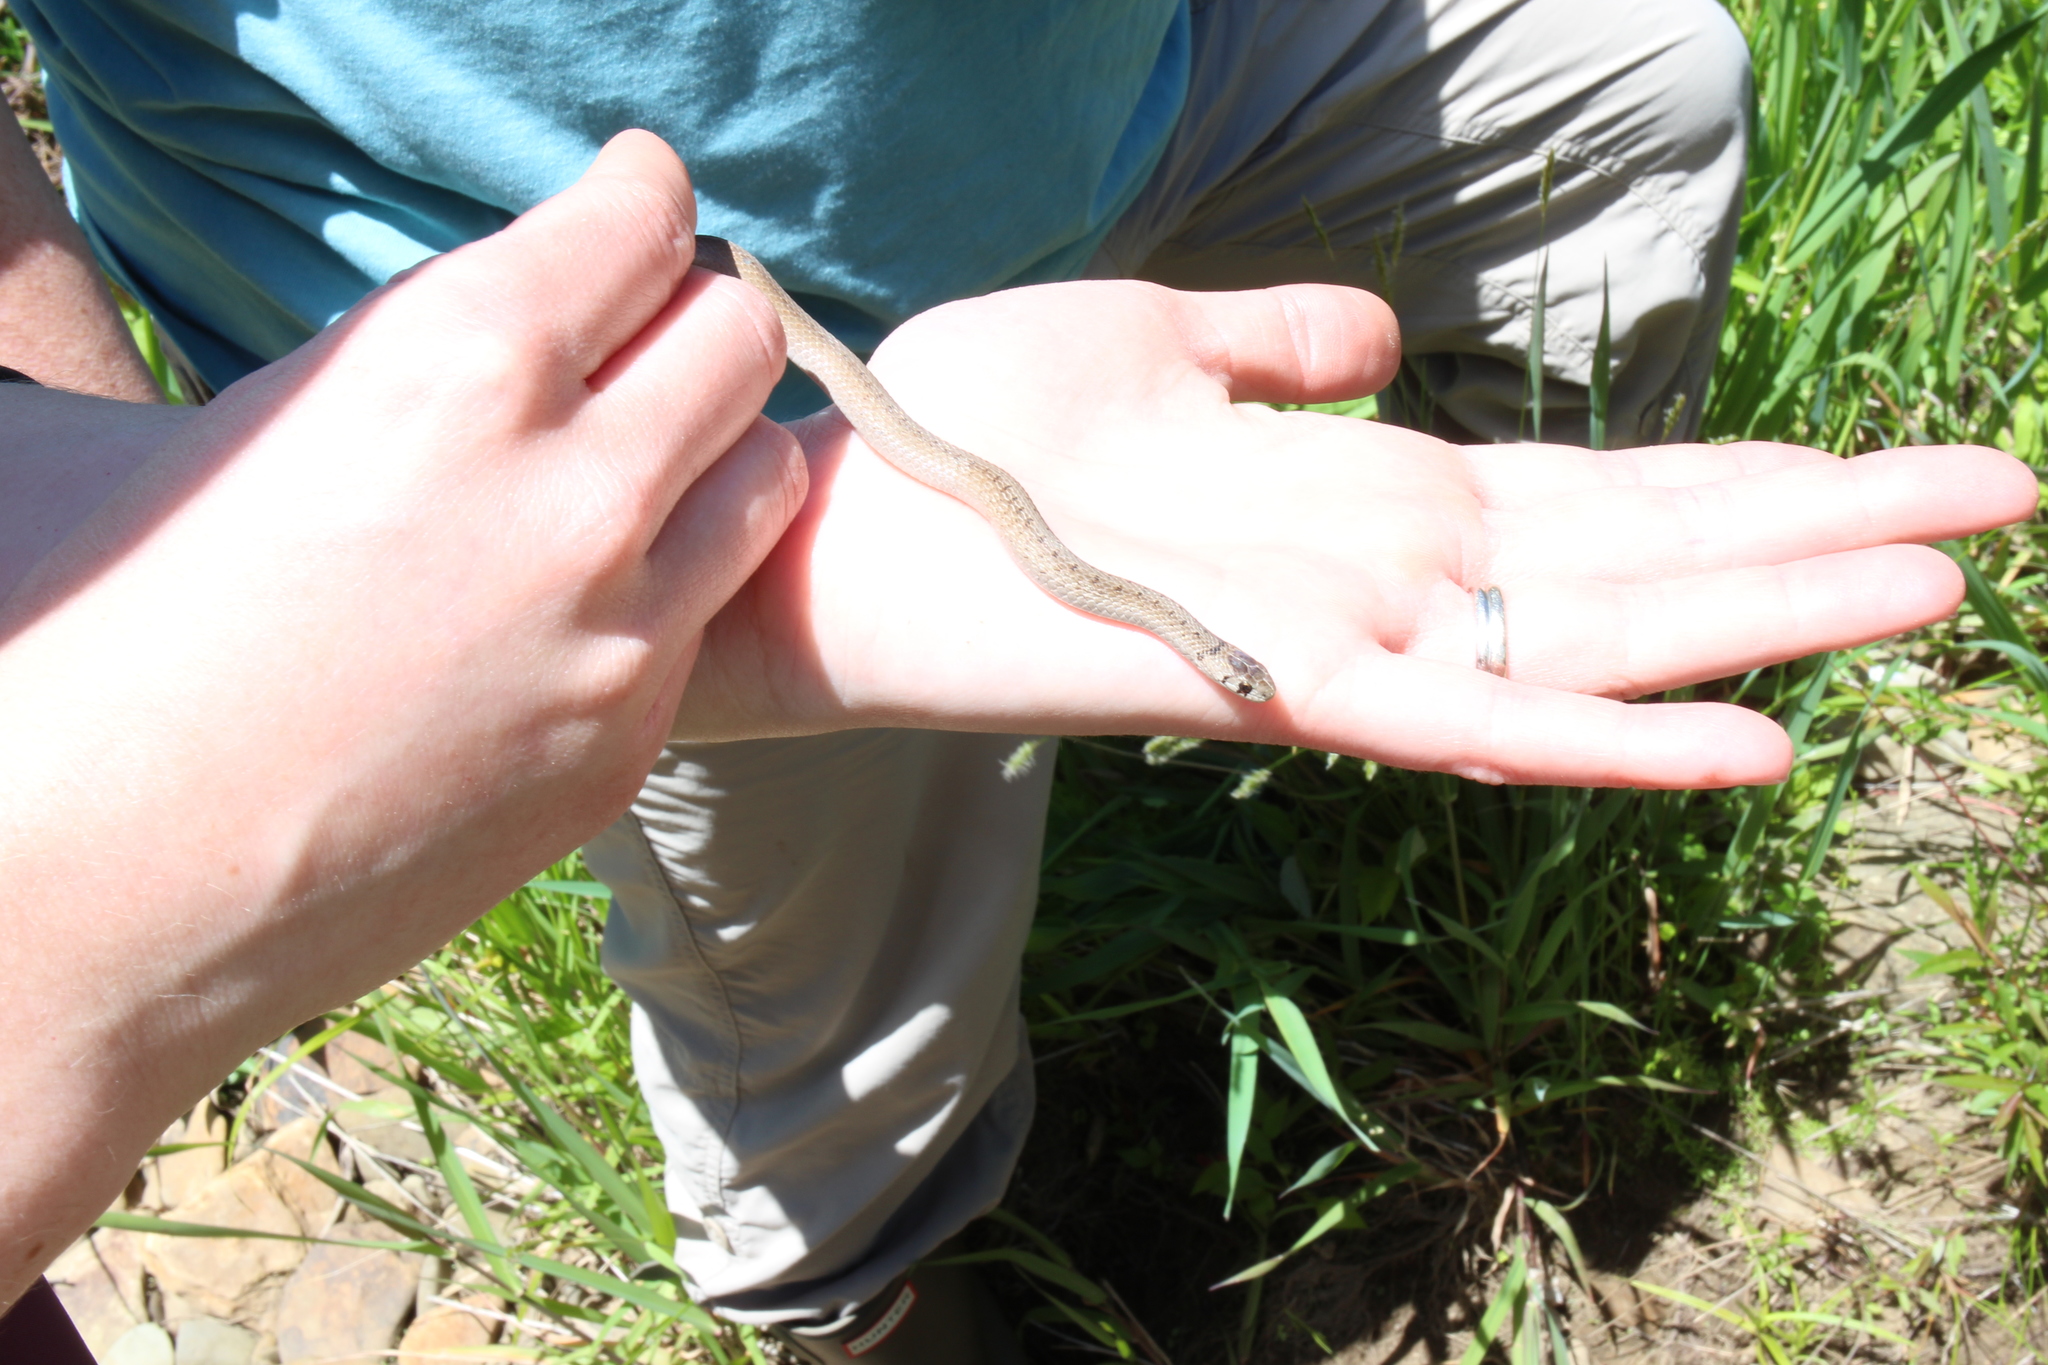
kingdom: Animalia
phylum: Chordata
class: Squamata
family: Colubridae
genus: Storeria
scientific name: Storeria dekayi
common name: (dekay’s) brown snake
